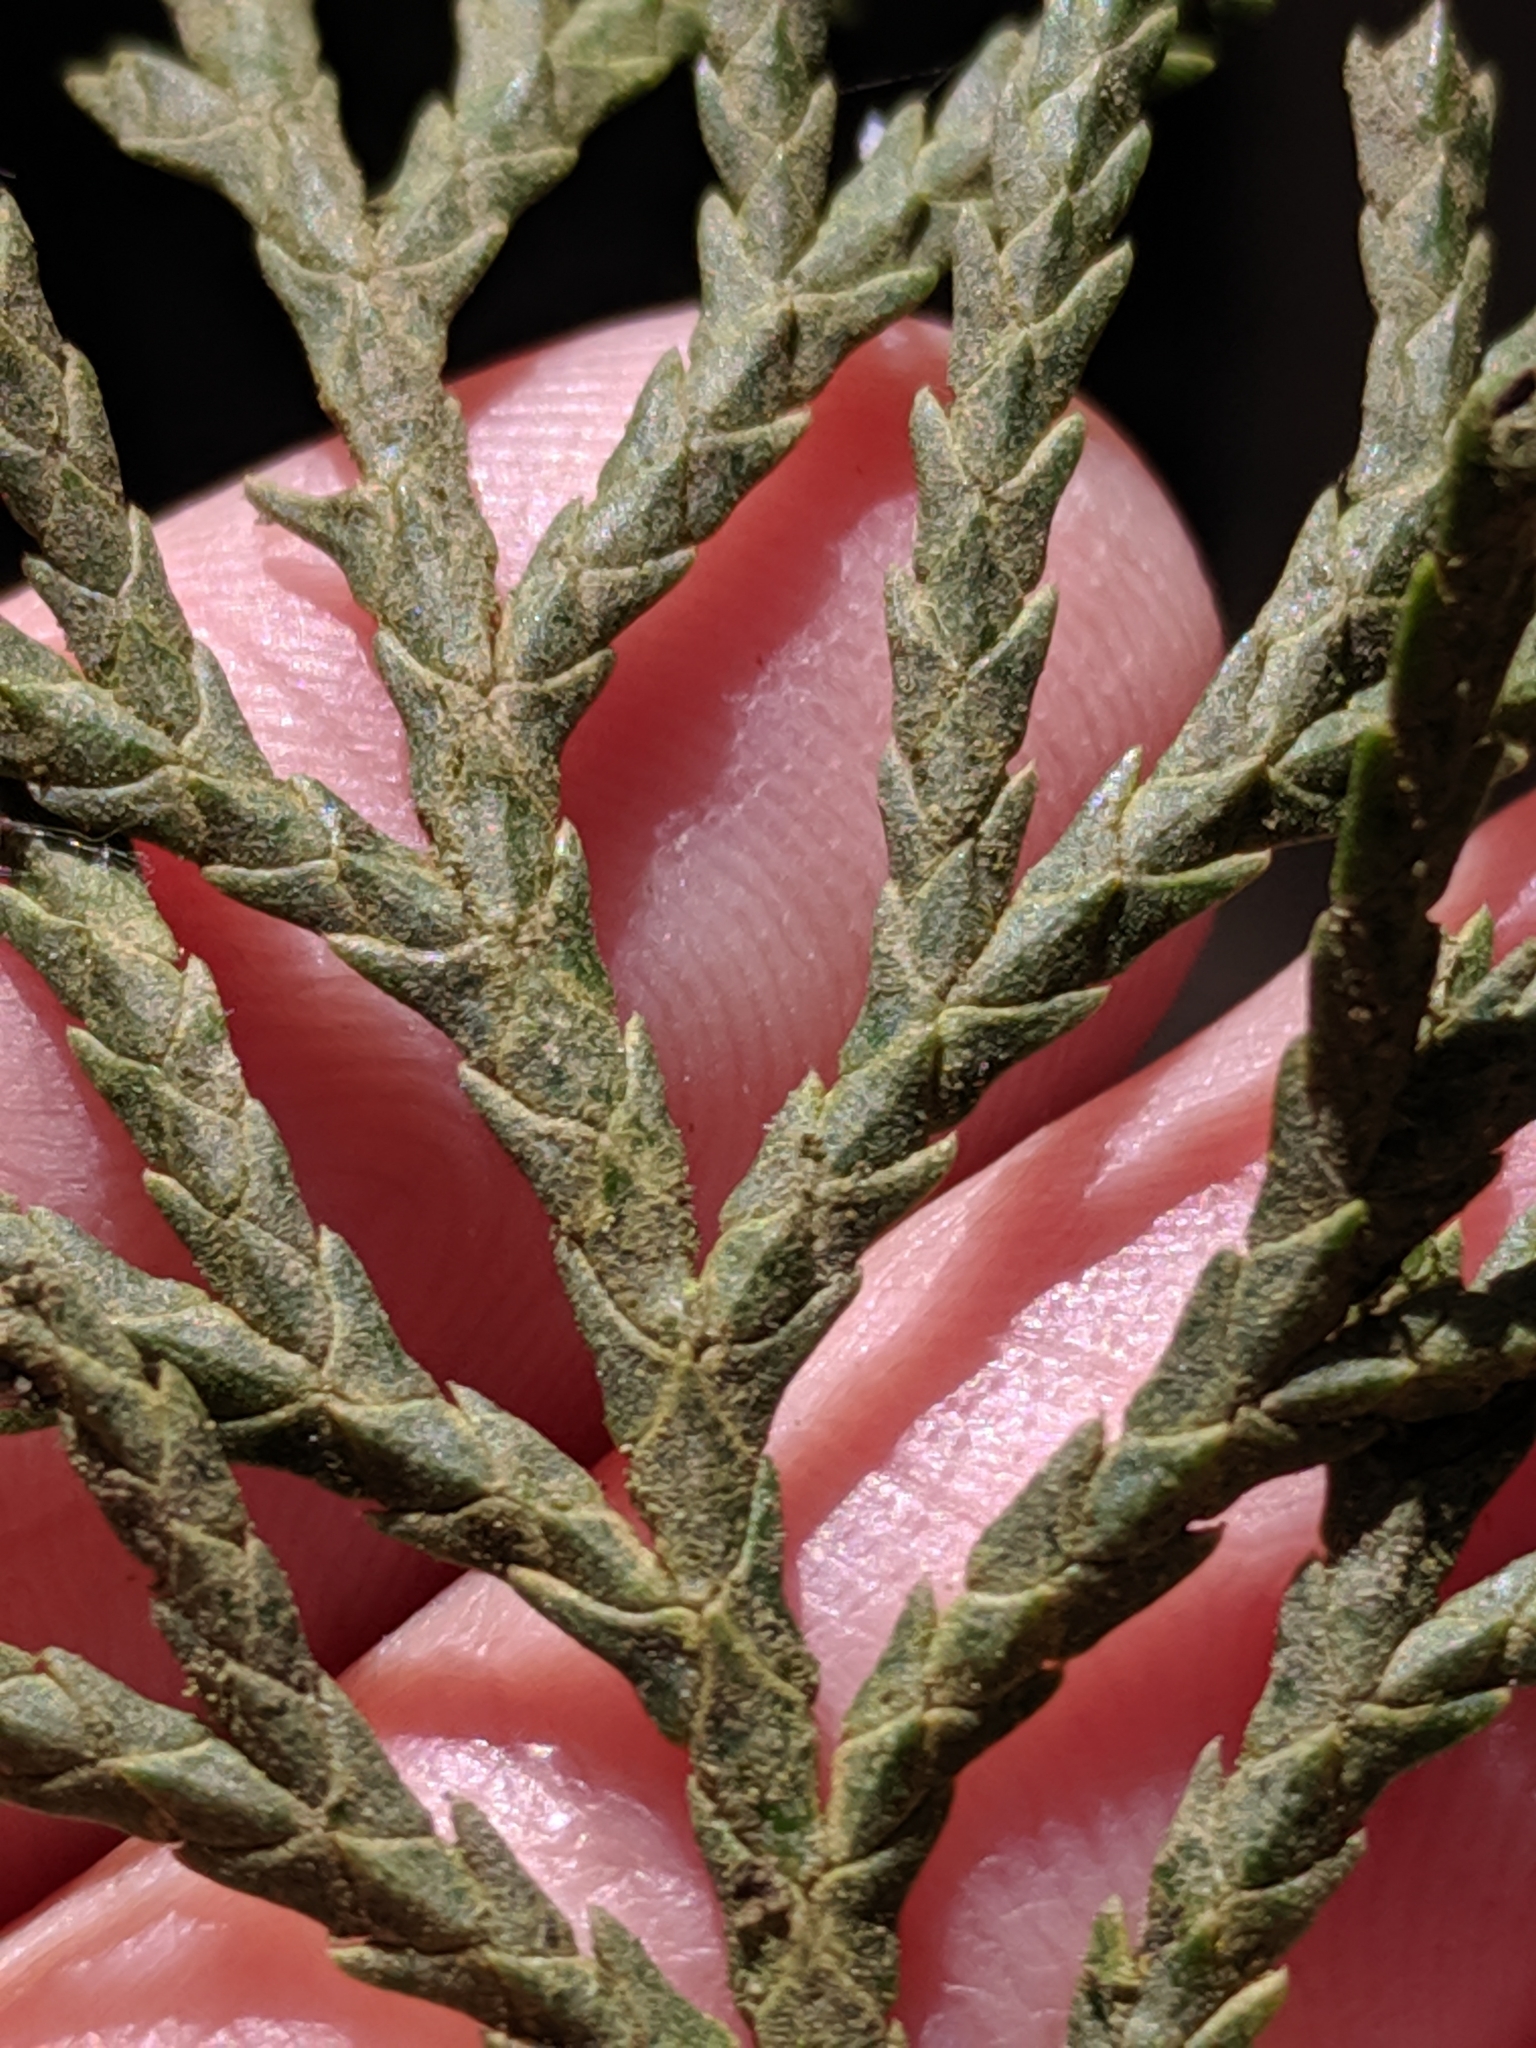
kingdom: Plantae
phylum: Tracheophyta
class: Pinopsida
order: Pinales
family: Cupressaceae
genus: Xanthocyparis
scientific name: Xanthocyparis nootkatensis
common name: Nootka cypress
